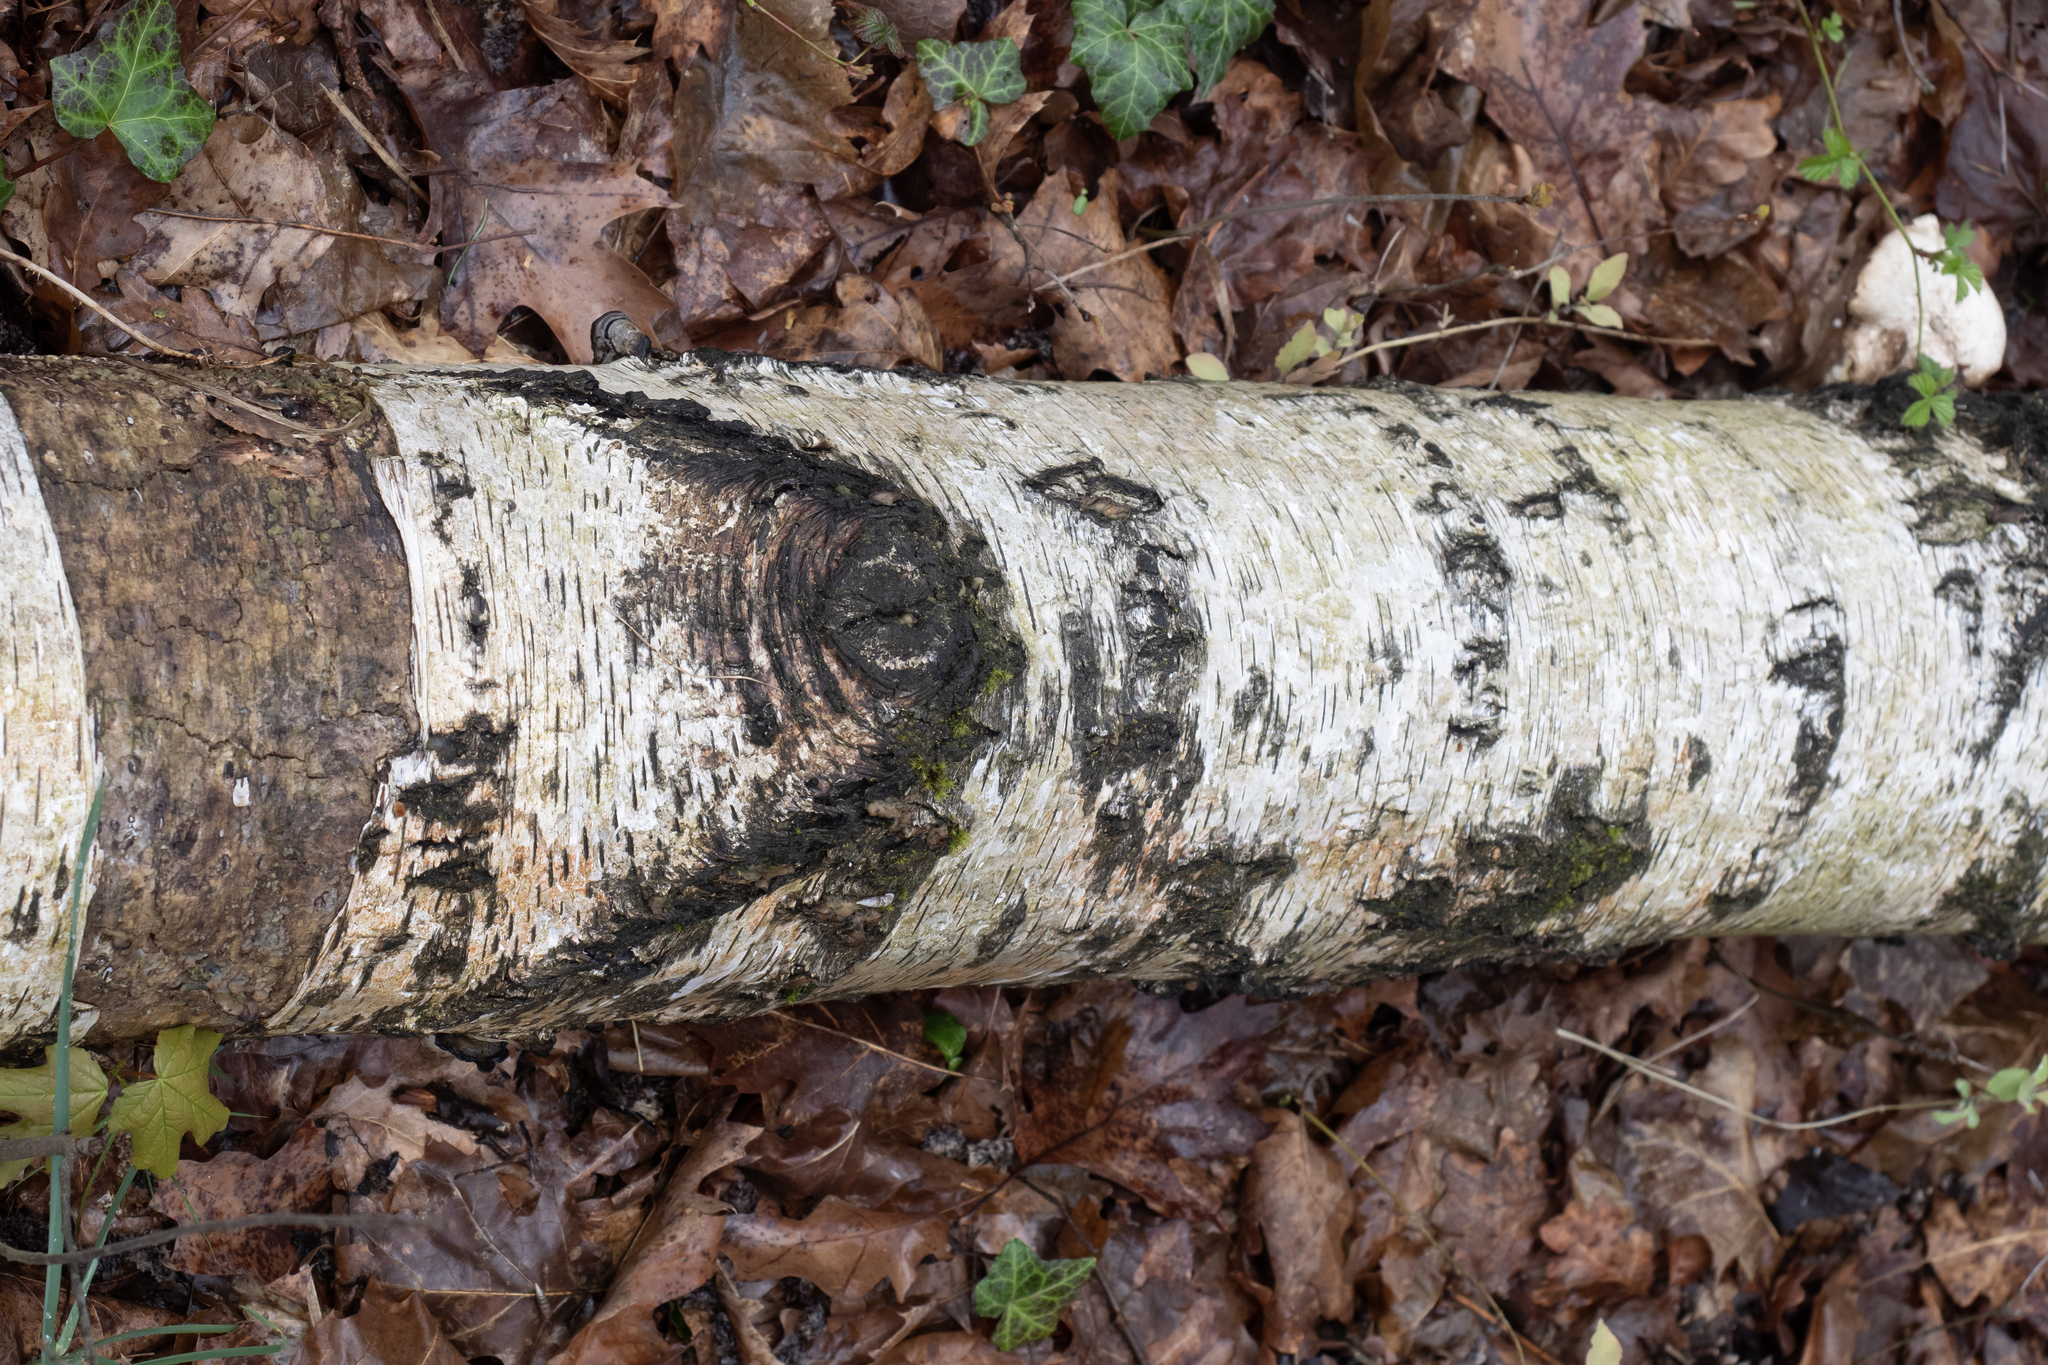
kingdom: Plantae
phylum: Tracheophyta
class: Magnoliopsida
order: Fagales
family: Betulaceae
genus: Betula
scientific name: Betula pendula
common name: Silver birch
